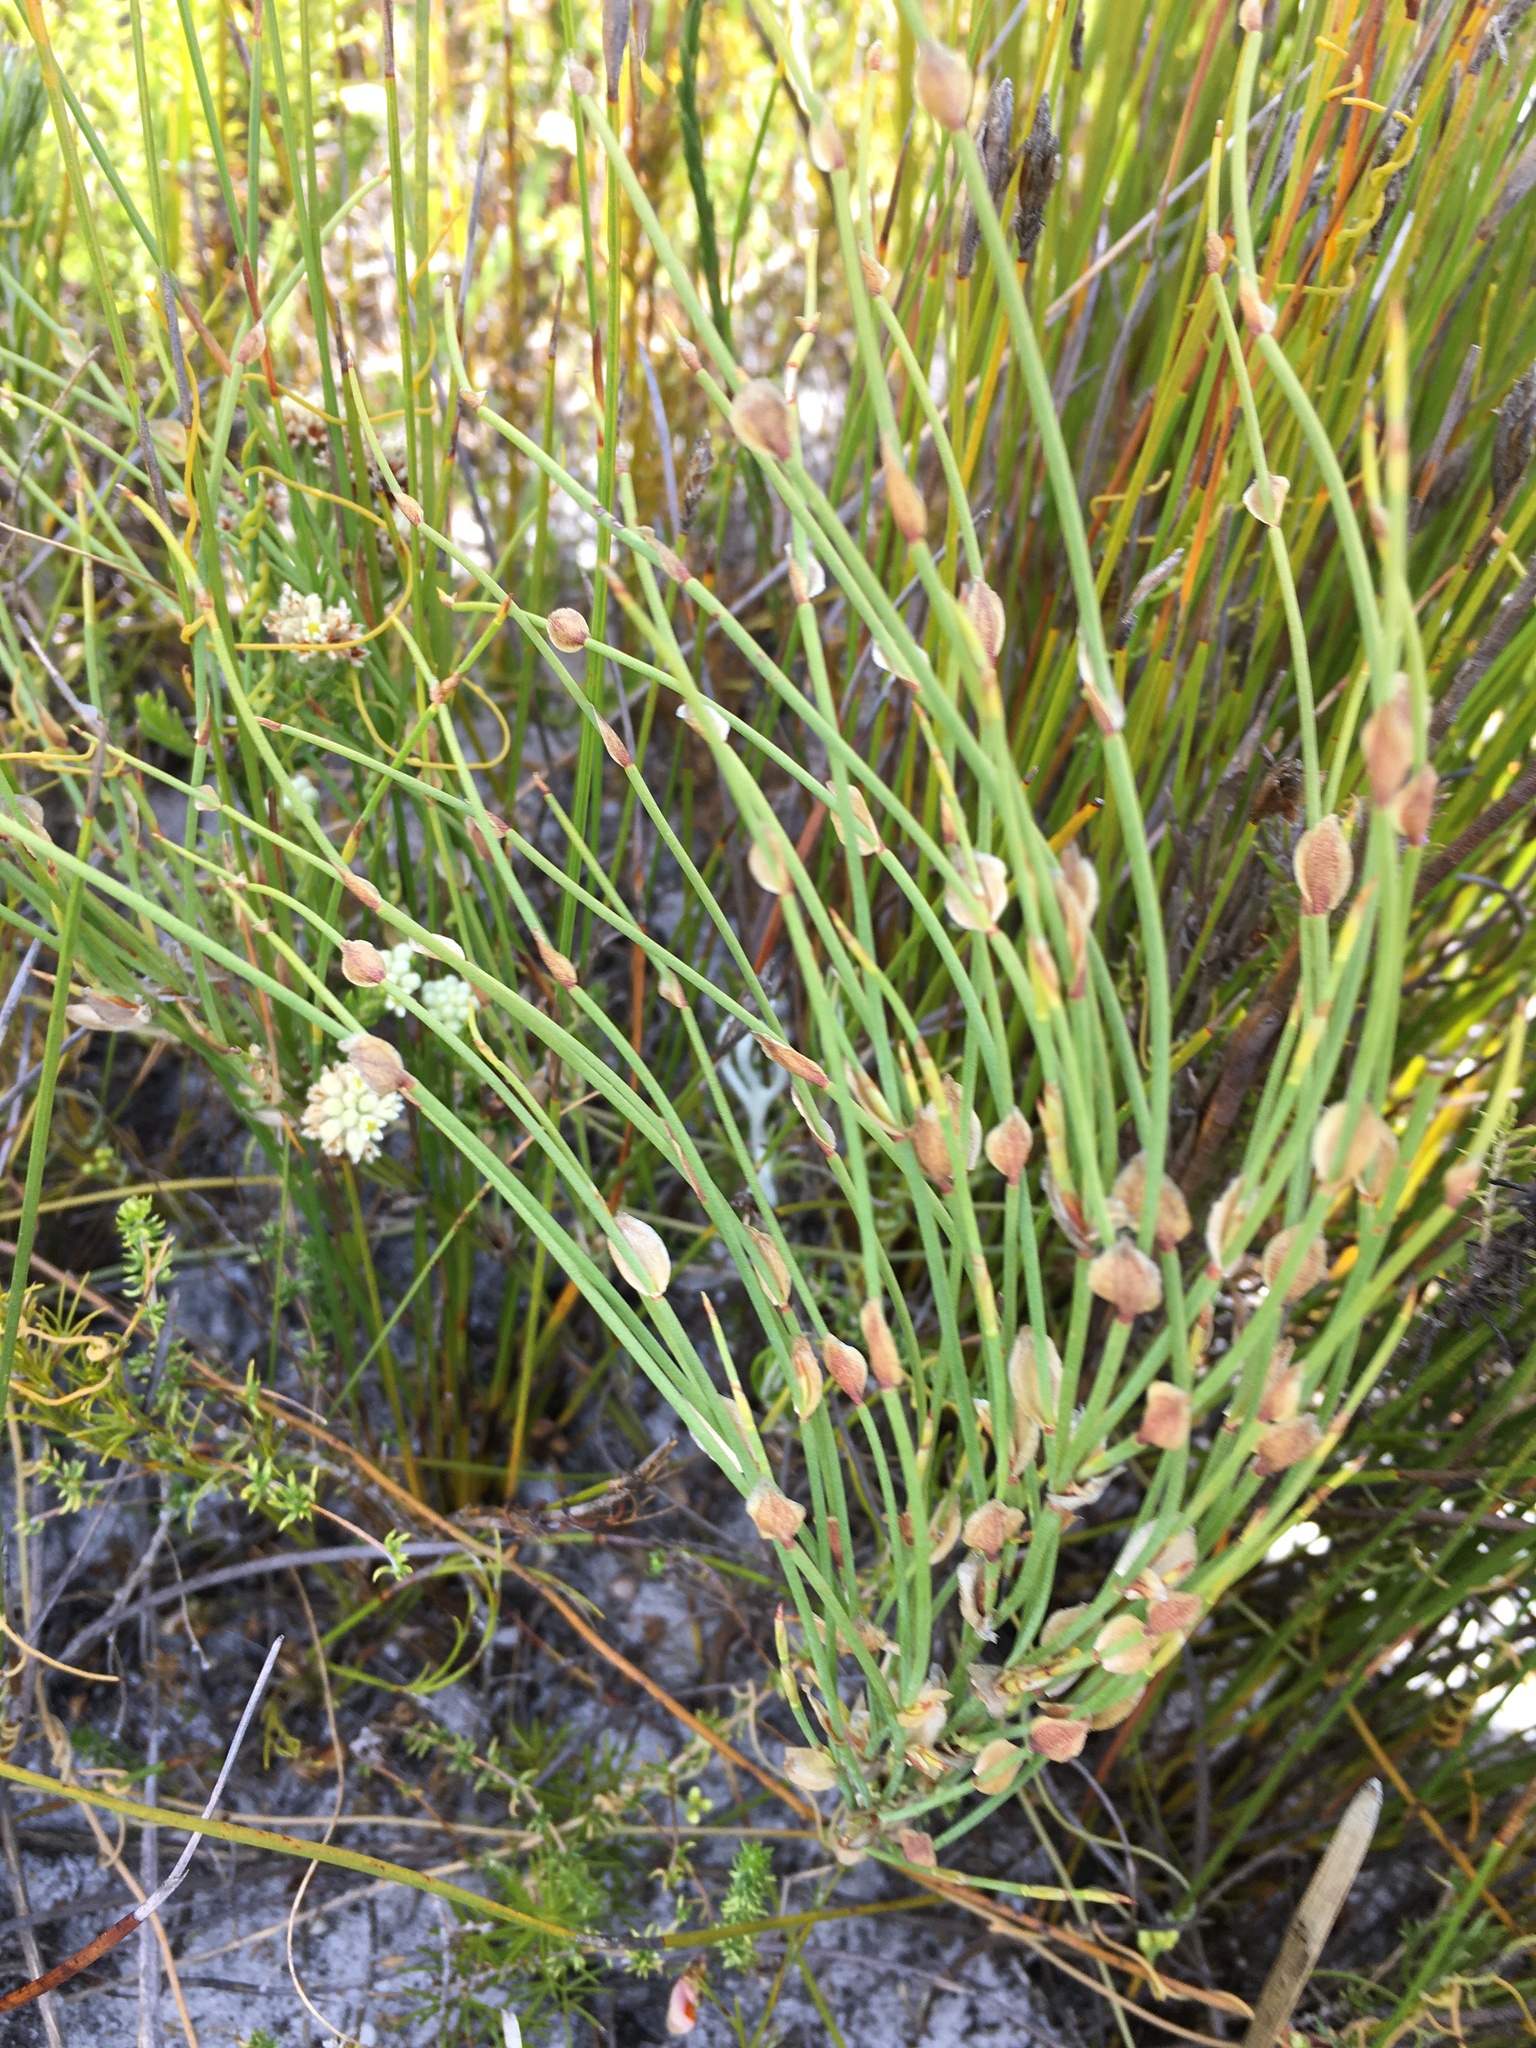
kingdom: Plantae
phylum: Tracheophyta
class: Liliopsida
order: Poales
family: Restionaceae
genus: Elegia
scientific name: Elegia stipularis
